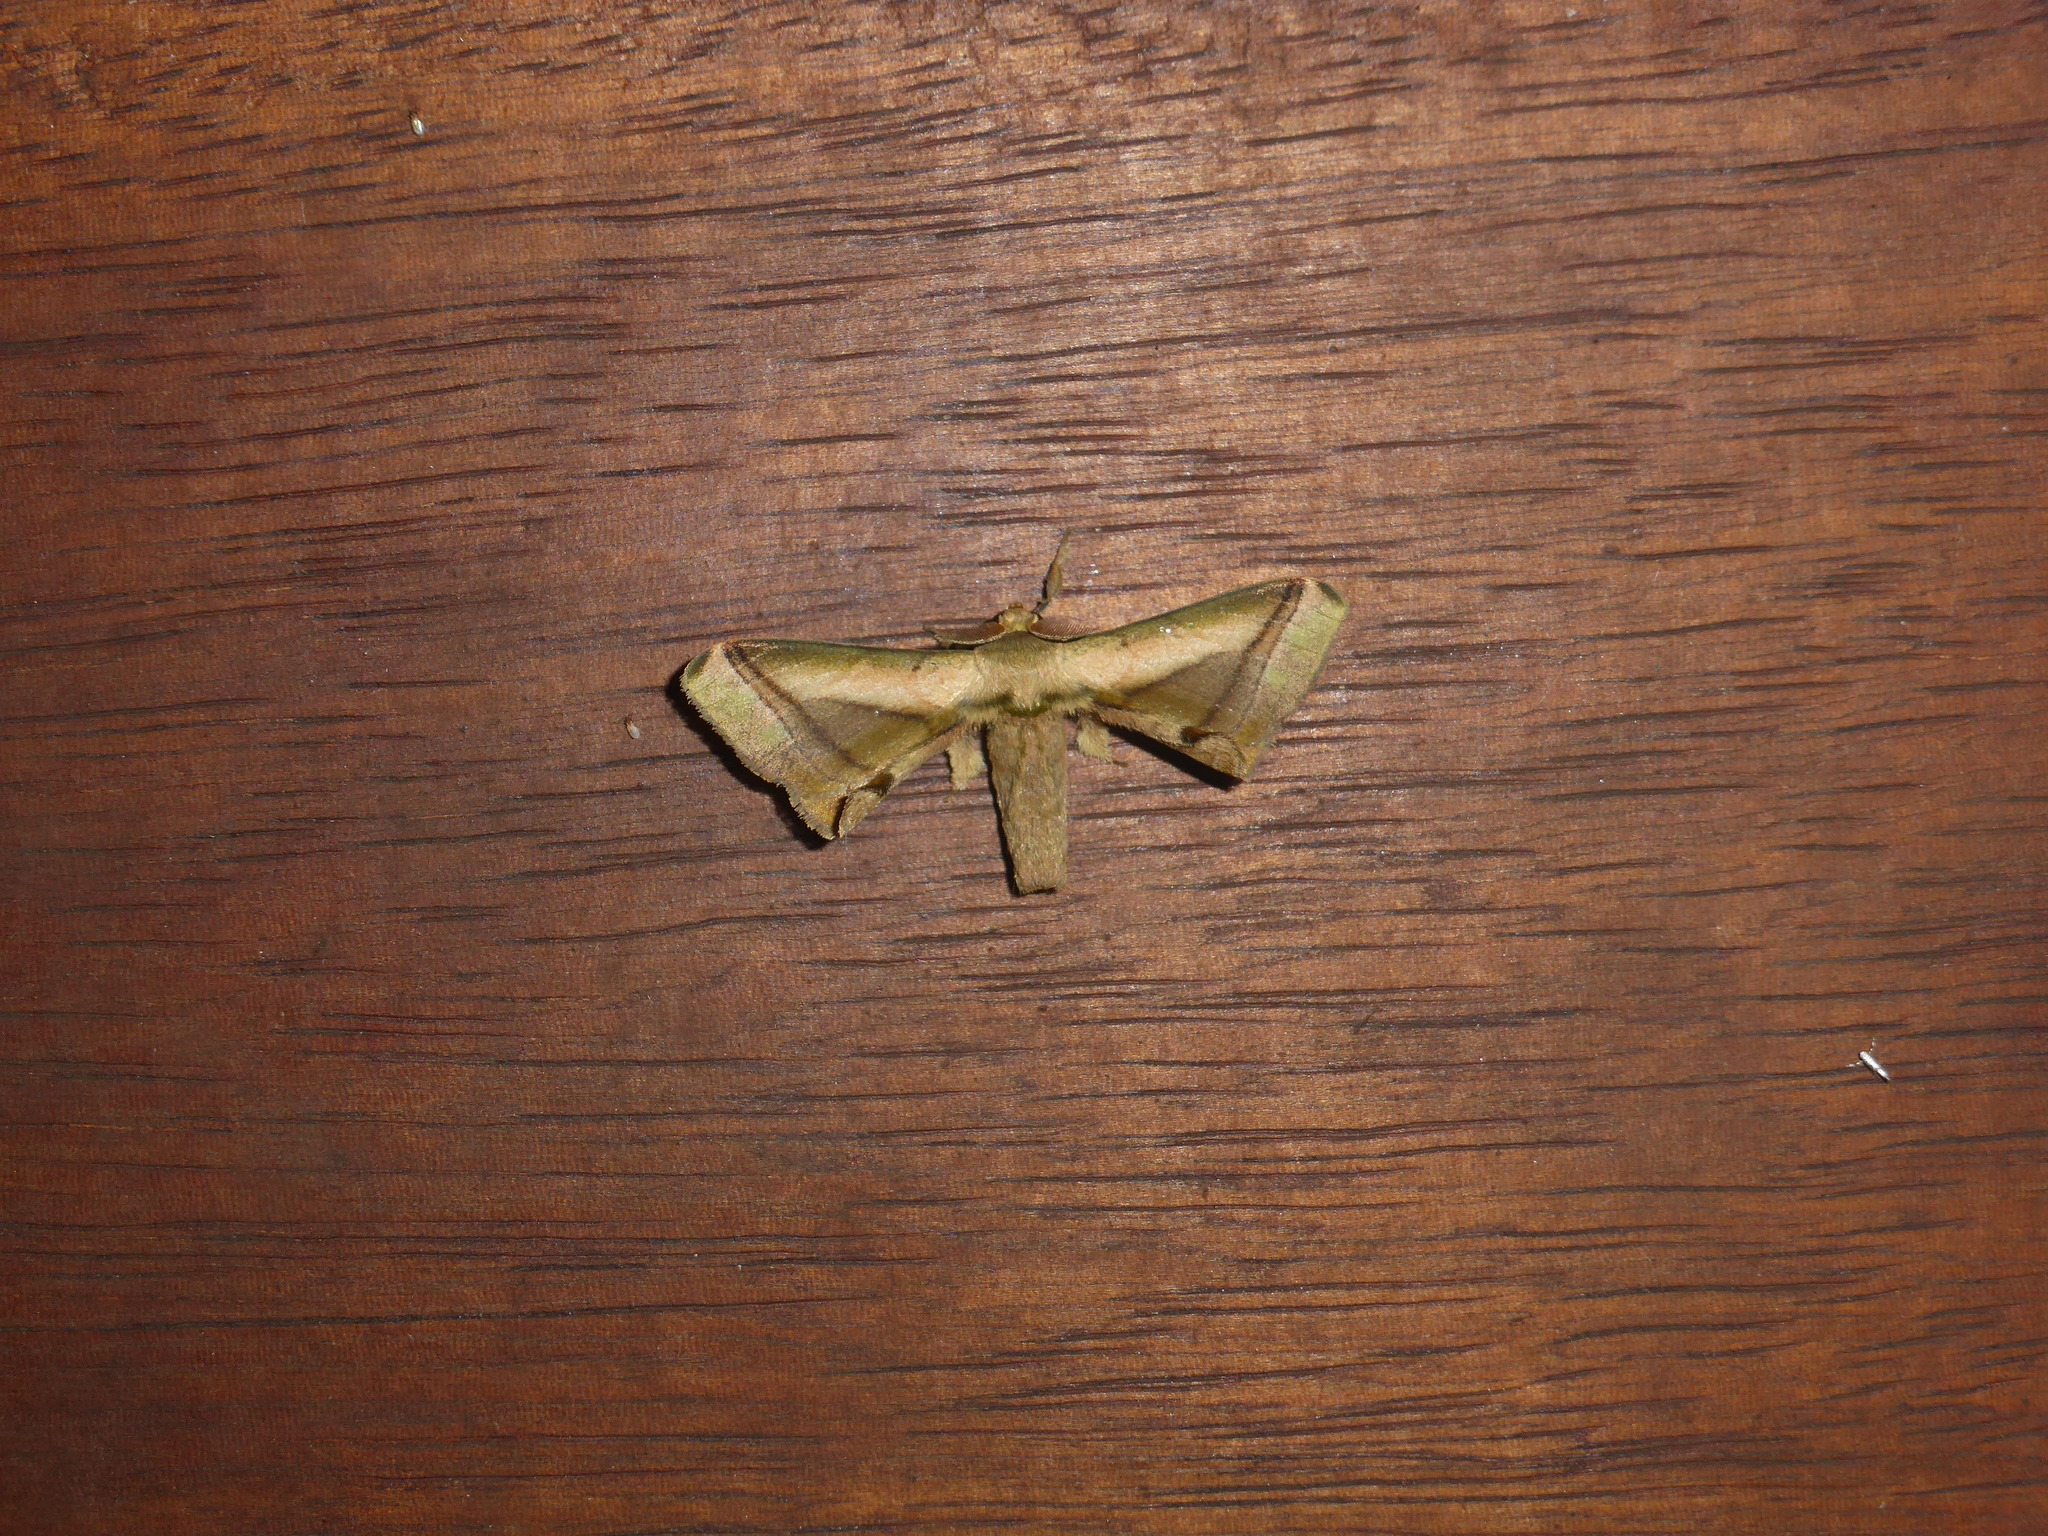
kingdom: Animalia
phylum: Arthropoda
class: Insecta
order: Lepidoptera
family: Bombycidae
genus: Epia
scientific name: Epia lebethra
